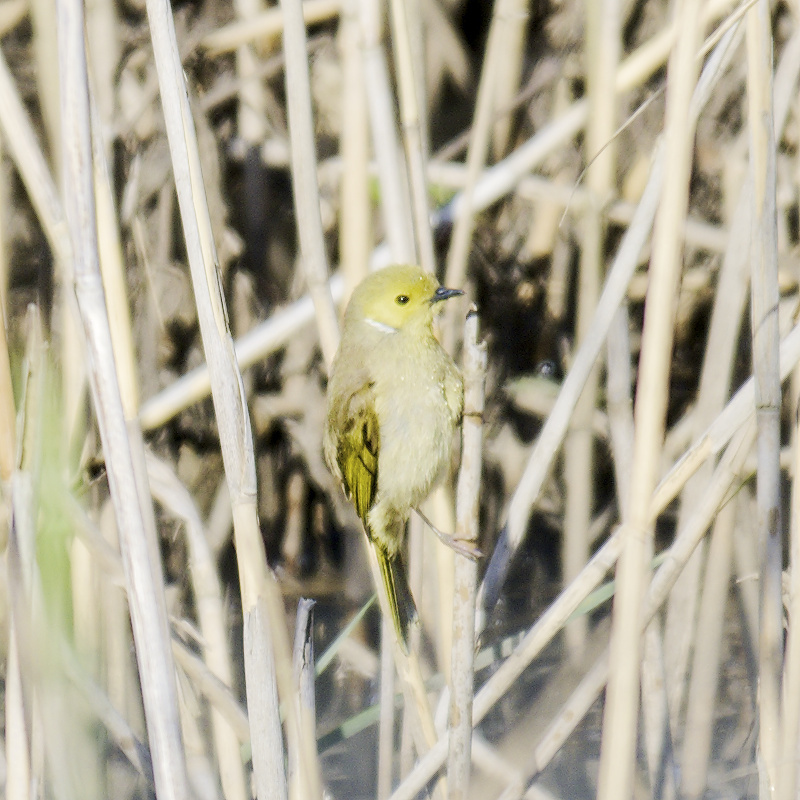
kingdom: Animalia
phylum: Chordata
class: Aves
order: Passeriformes
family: Meliphagidae
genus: Ptilotula
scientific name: Ptilotula penicillata
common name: White-plumed honeyeater
